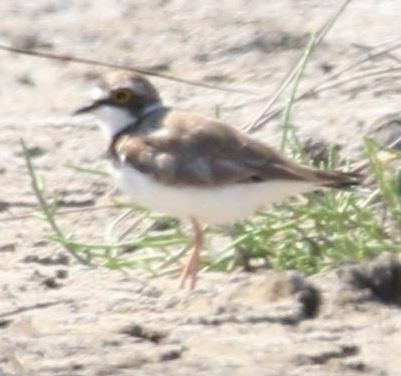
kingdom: Animalia
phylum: Chordata
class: Aves
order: Charadriiformes
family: Charadriidae
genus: Charadrius
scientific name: Charadrius dubius
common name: Little ringed plover
